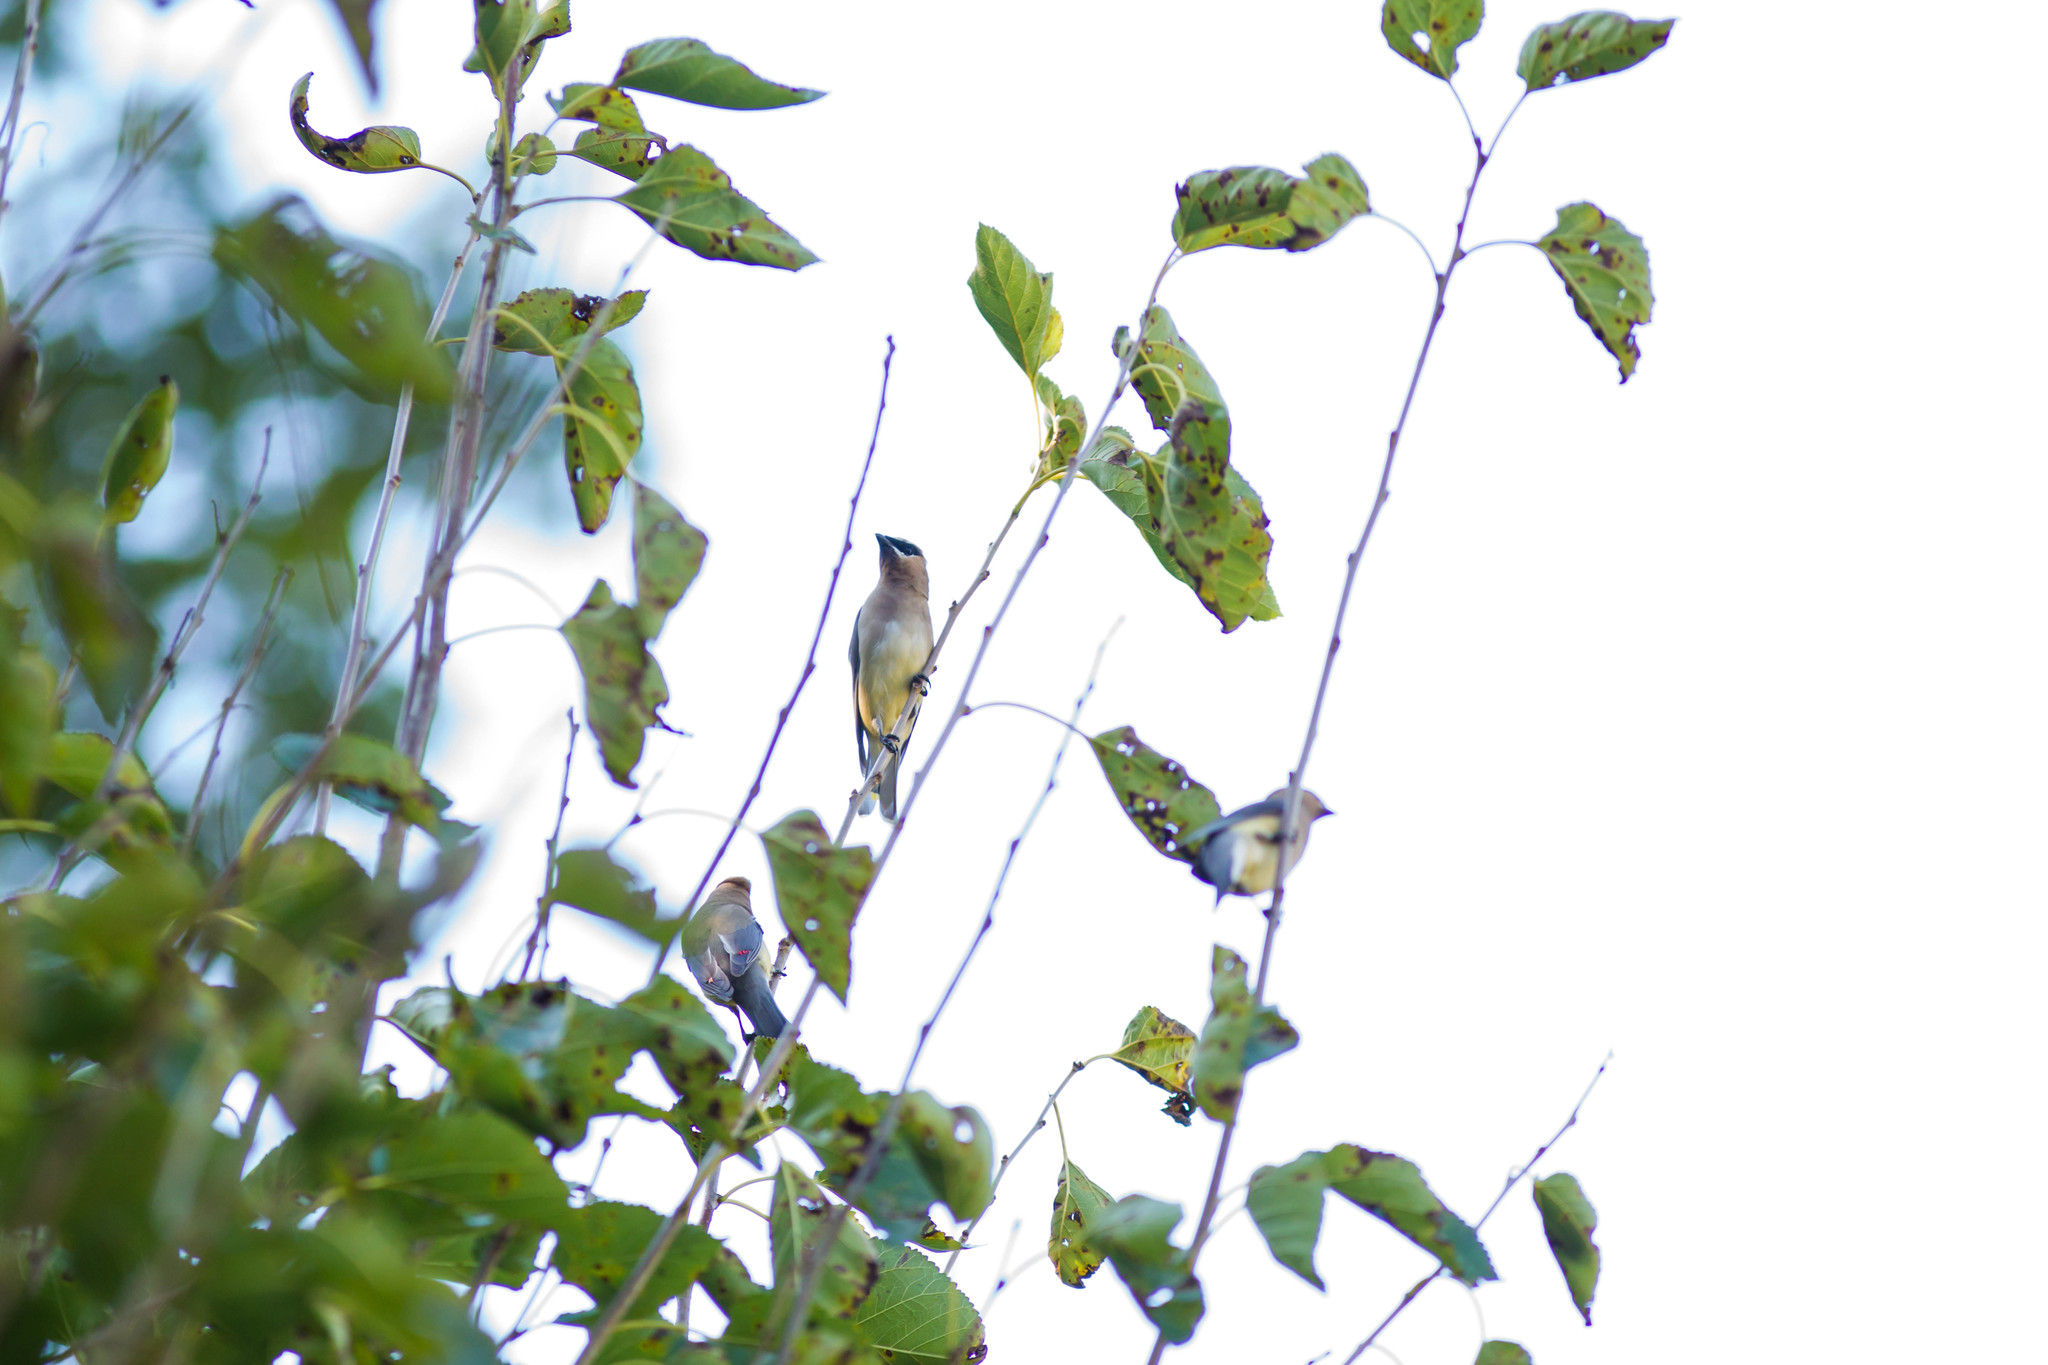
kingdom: Animalia
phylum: Chordata
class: Aves
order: Passeriformes
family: Bombycillidae
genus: Bombycilla
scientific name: Bombycilla cedrorum
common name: Cedar waxwing
